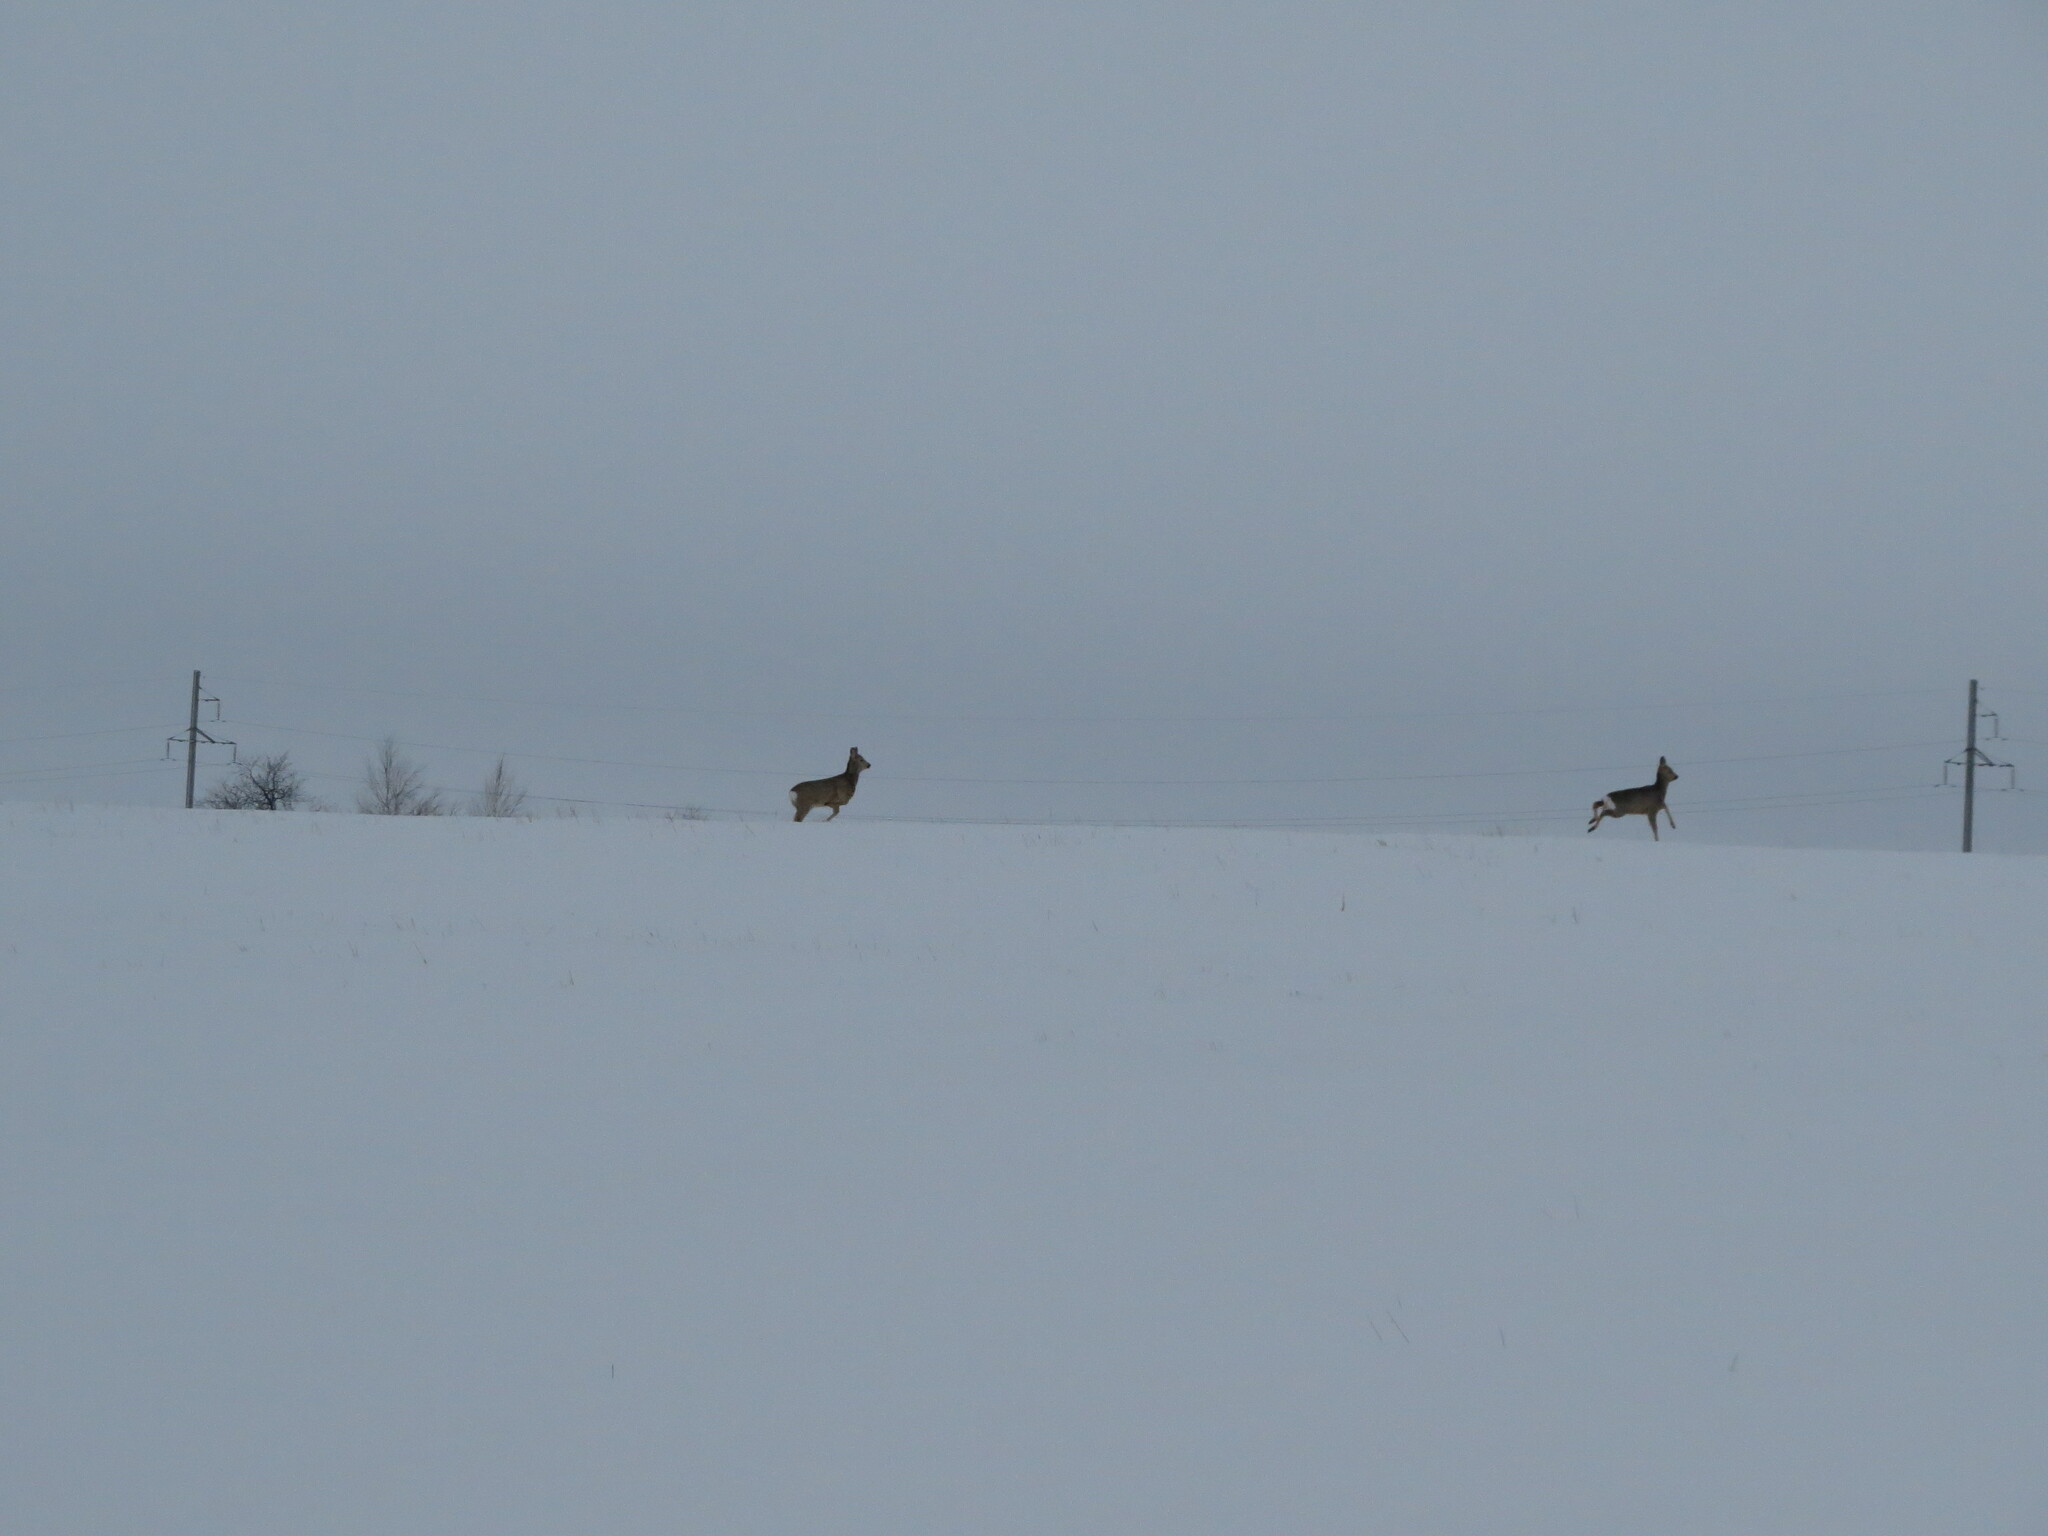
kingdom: Animalia
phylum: Chordata
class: Mammalia
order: Artiodactyla
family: Cervidae
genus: Capreolus
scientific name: Capreolus pygargus
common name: Siberian roe
